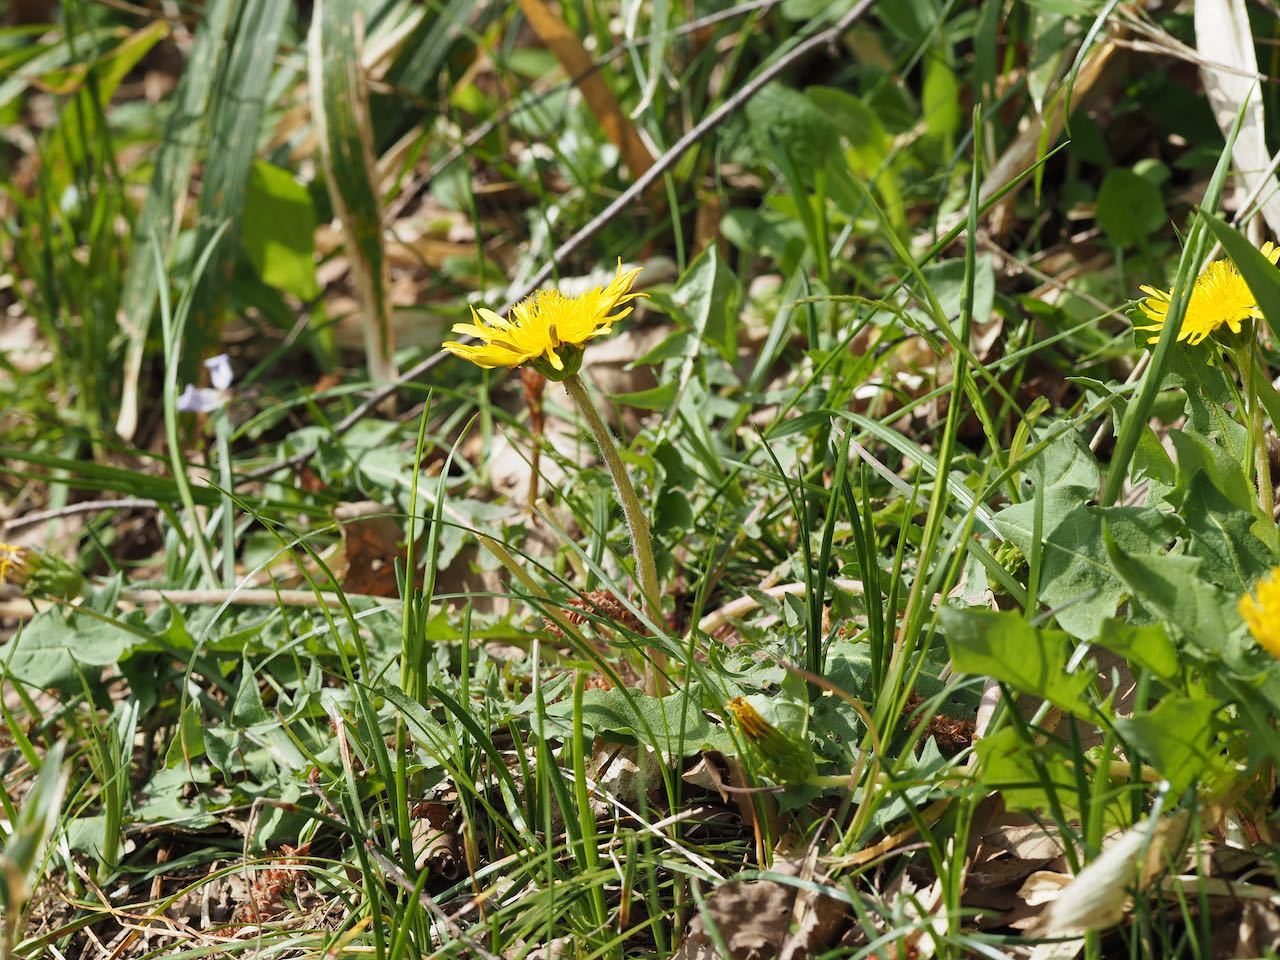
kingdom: Plantae
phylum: Tracheophyta
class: Magnoliopsida
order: Asterales
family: Asteraceae
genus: Taraxacum
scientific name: Taraxacum platycarpum
